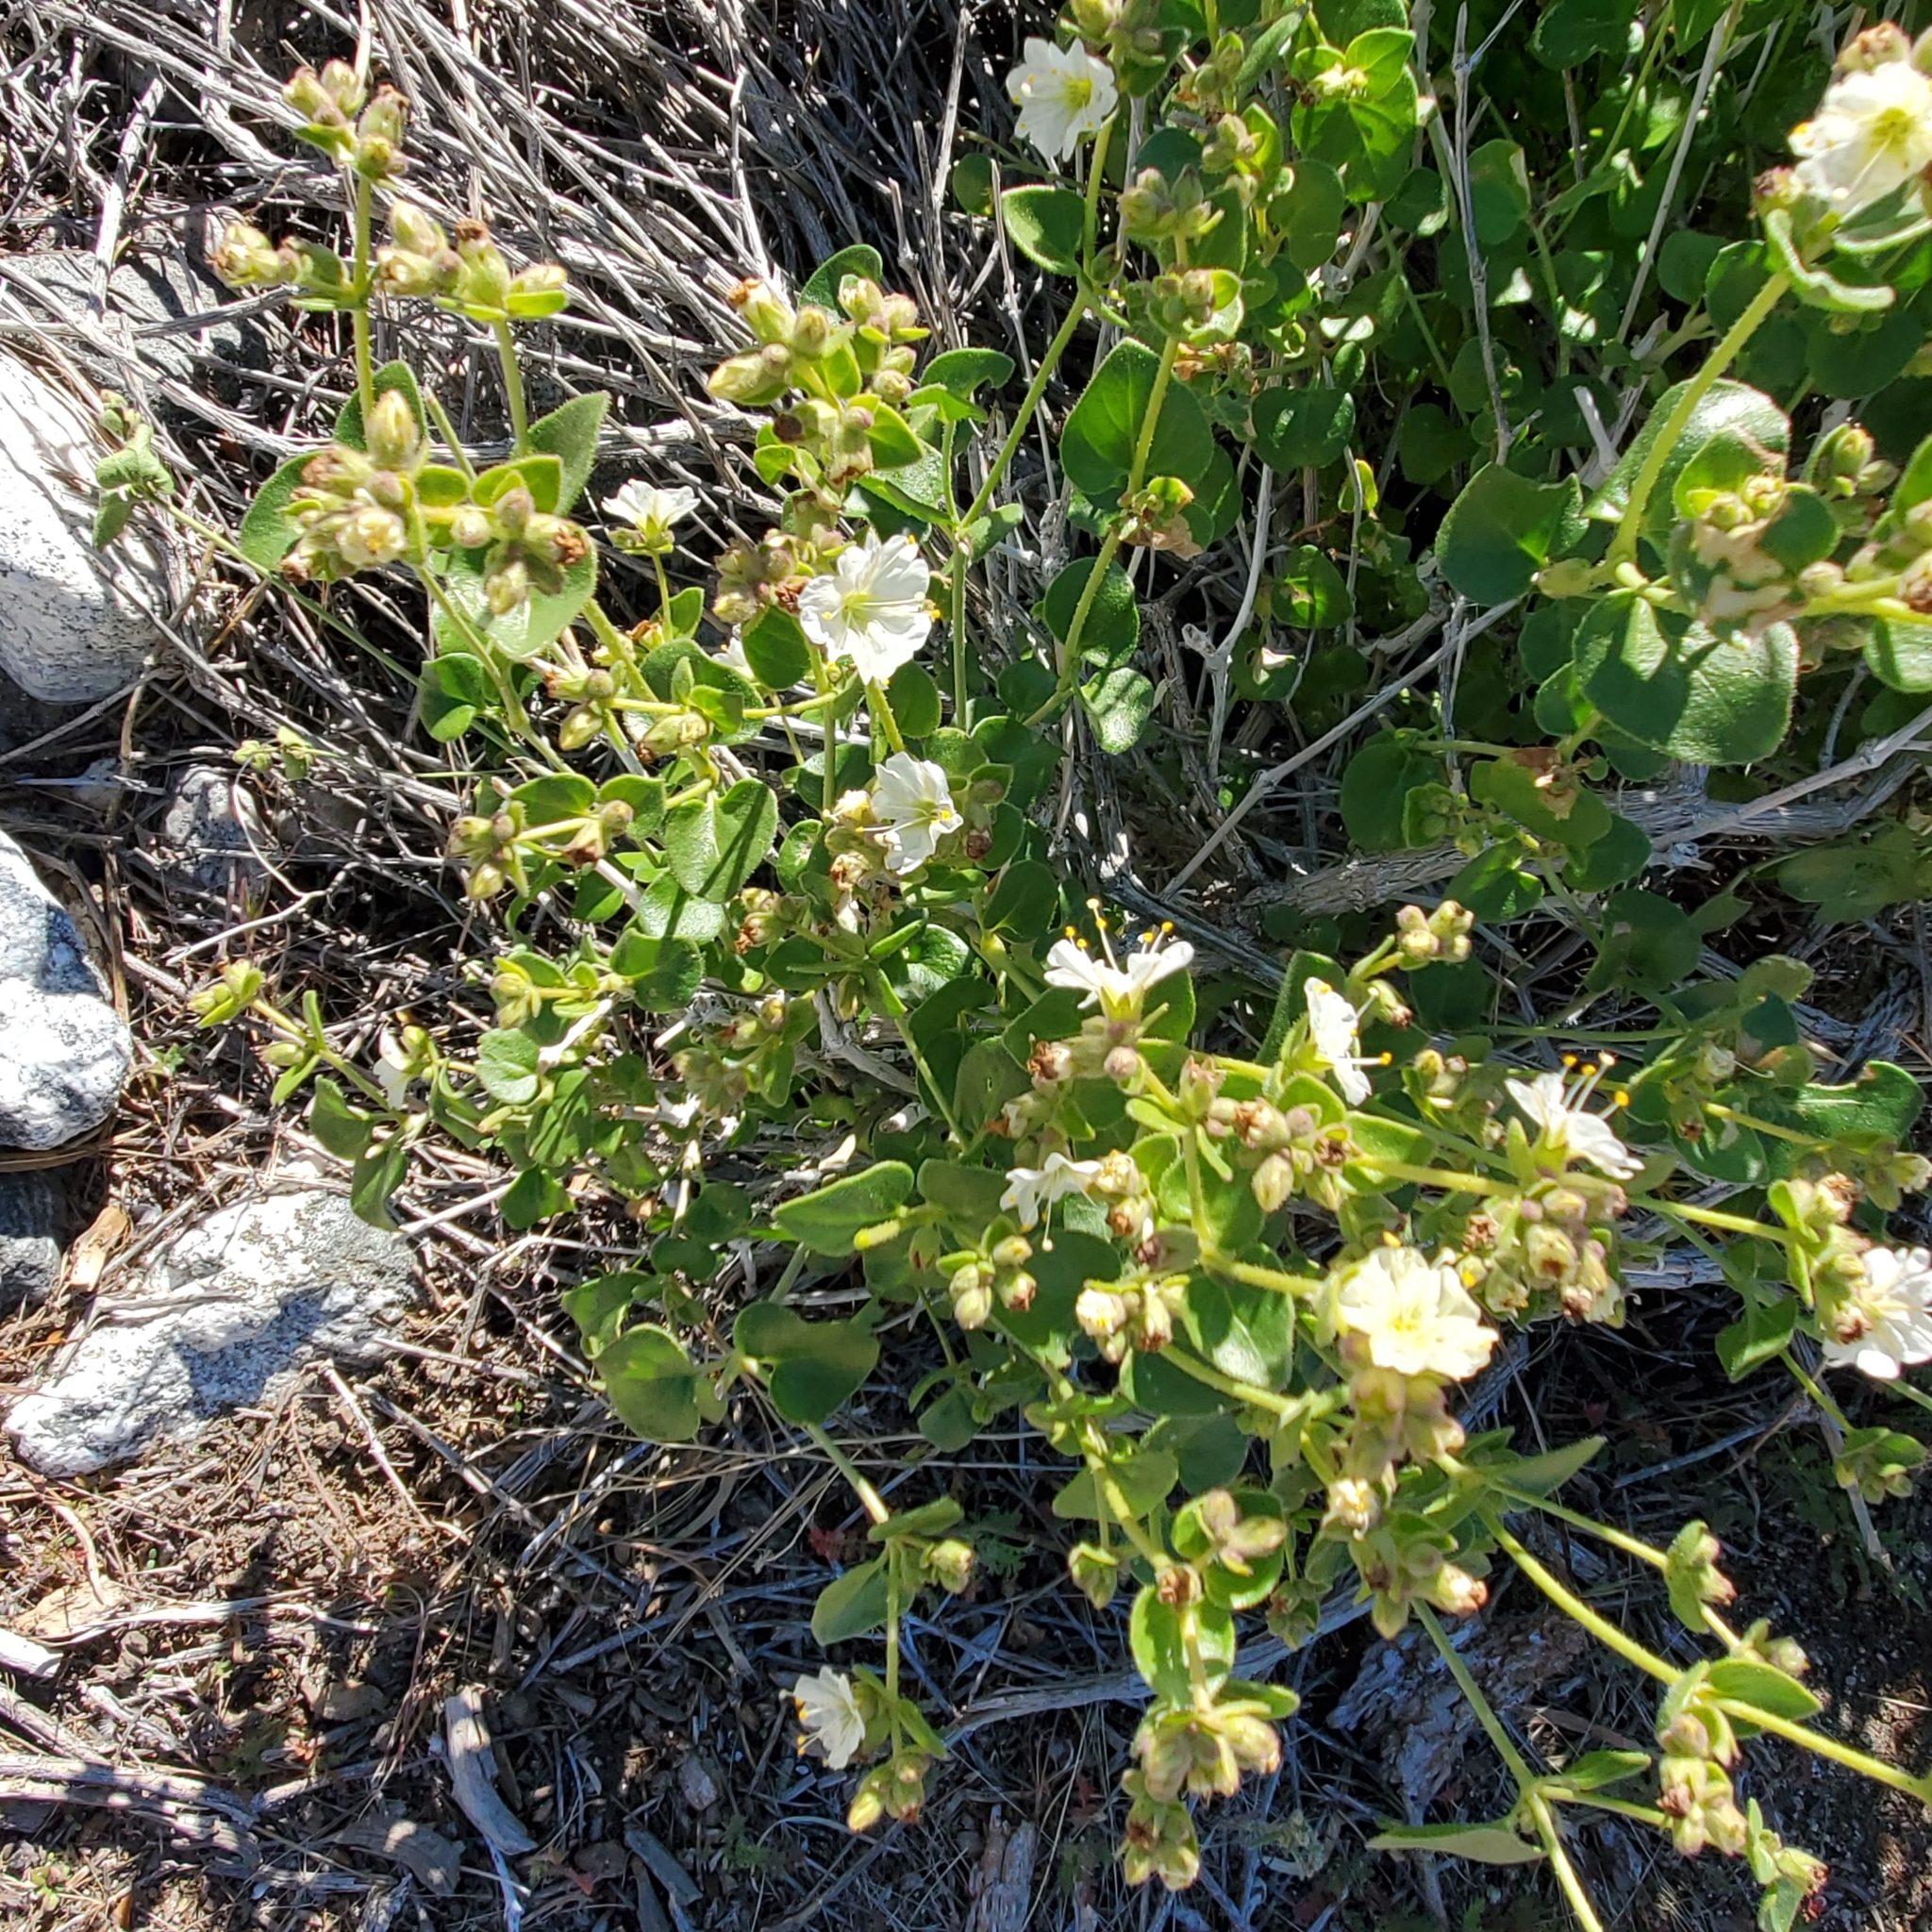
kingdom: Plantae
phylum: Tracheophyta
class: Magnoliopsida
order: Caryophyllales
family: Nyctaginaceae
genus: Mirabilis
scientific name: Mirabilis laevis
